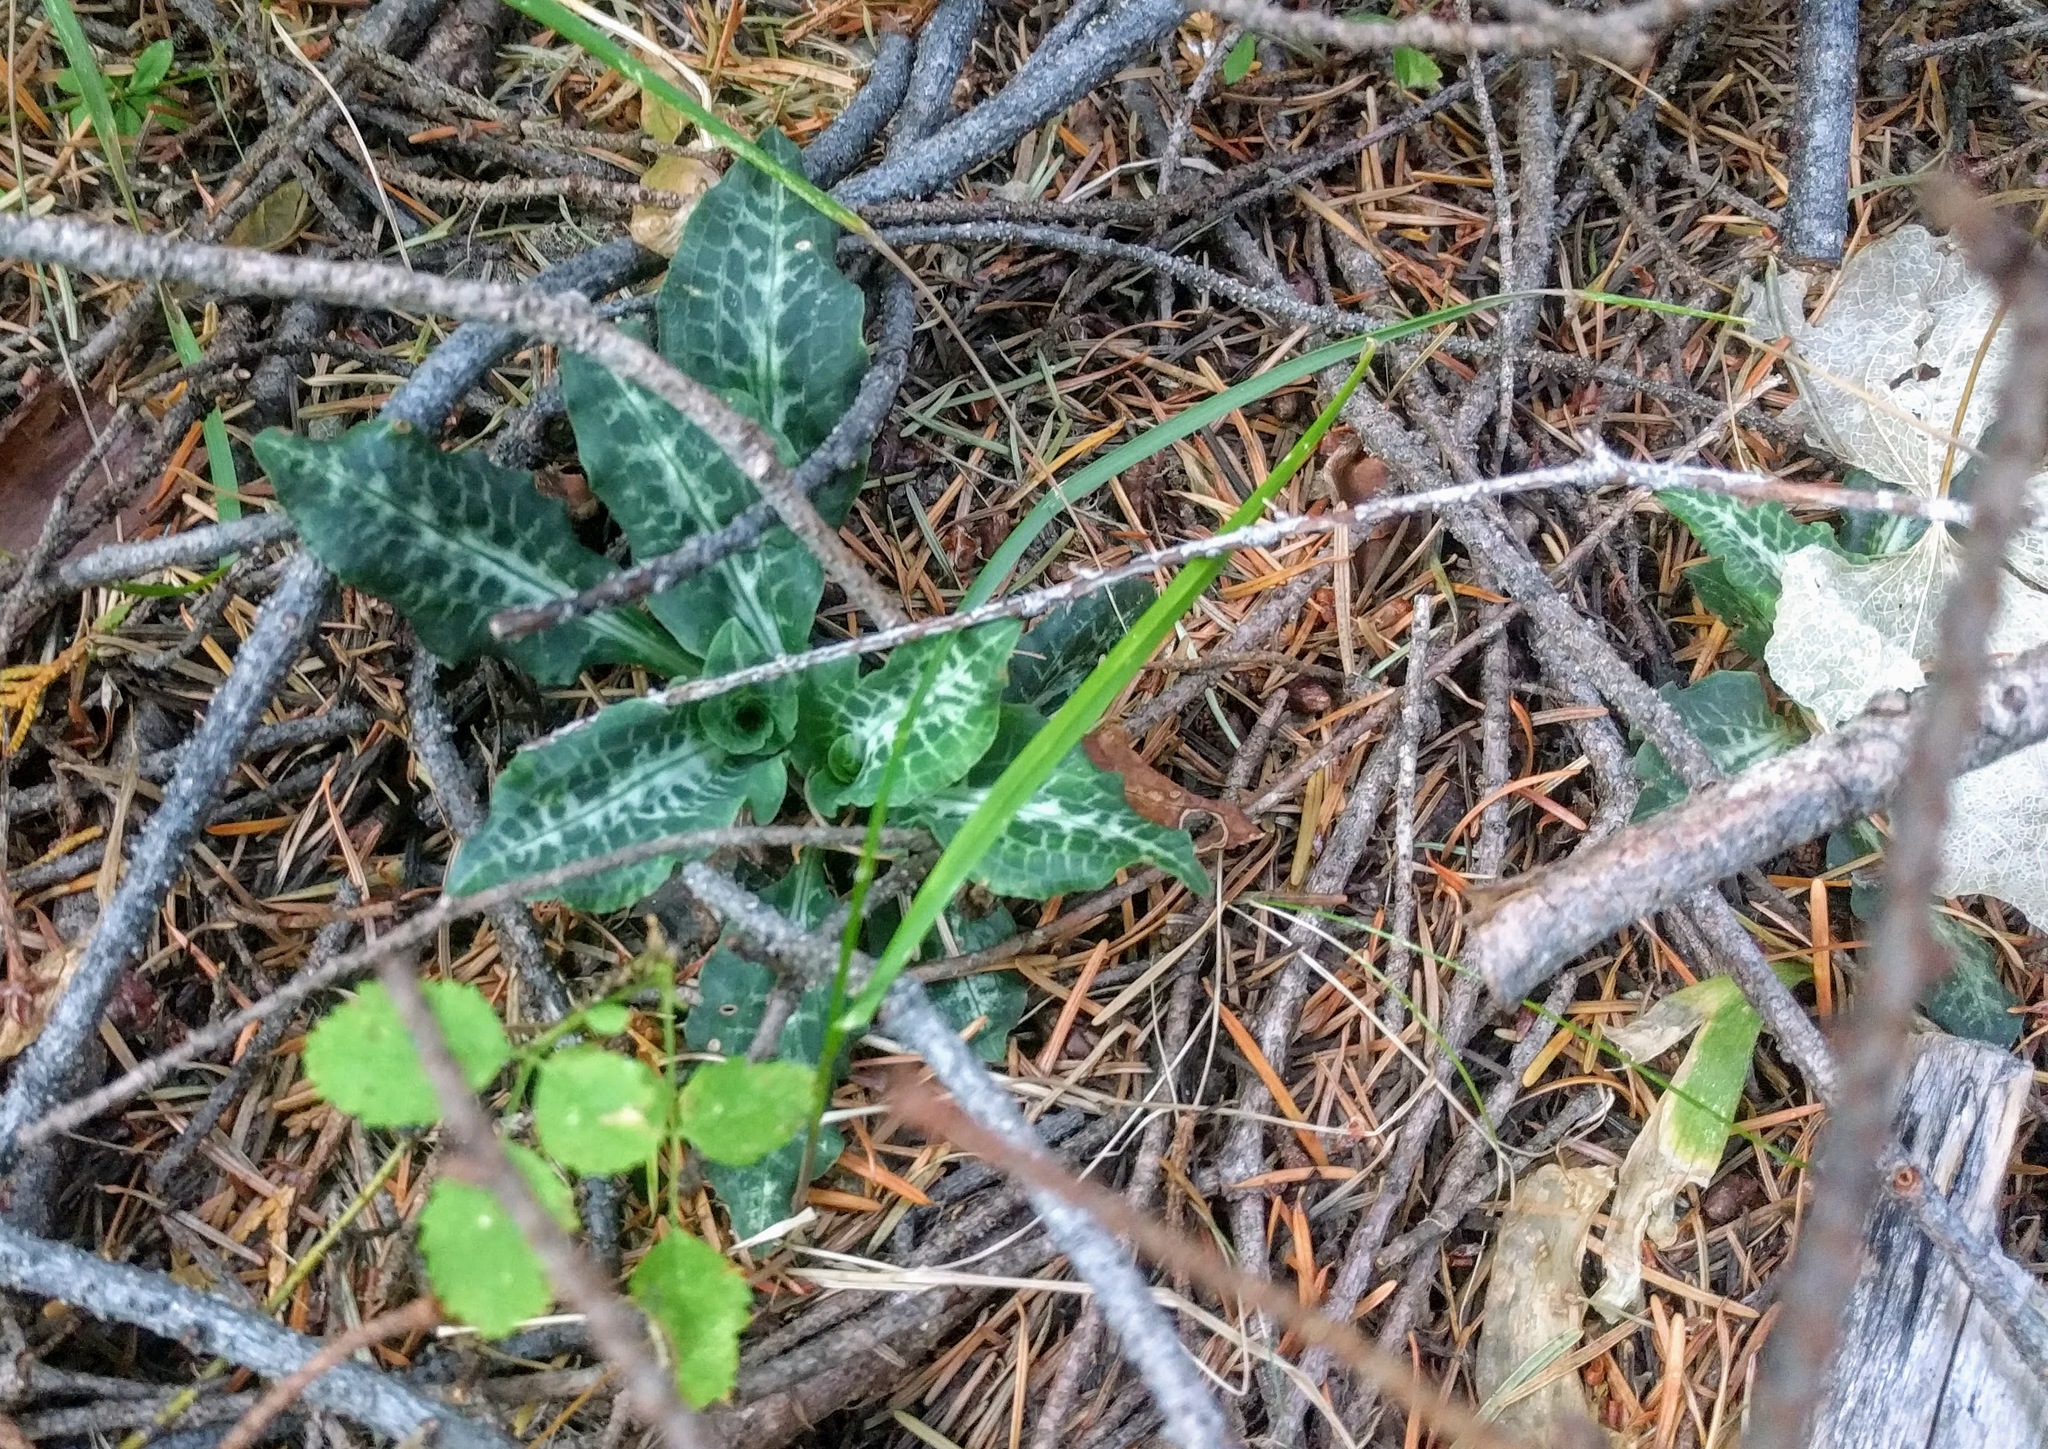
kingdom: Plantae
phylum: Tracheophyta
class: Liliopsida
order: Asparagales
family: Orchidaceae
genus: Goodyera
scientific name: Goodyera oblongifolia
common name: Giant rattlesnake-plantain
